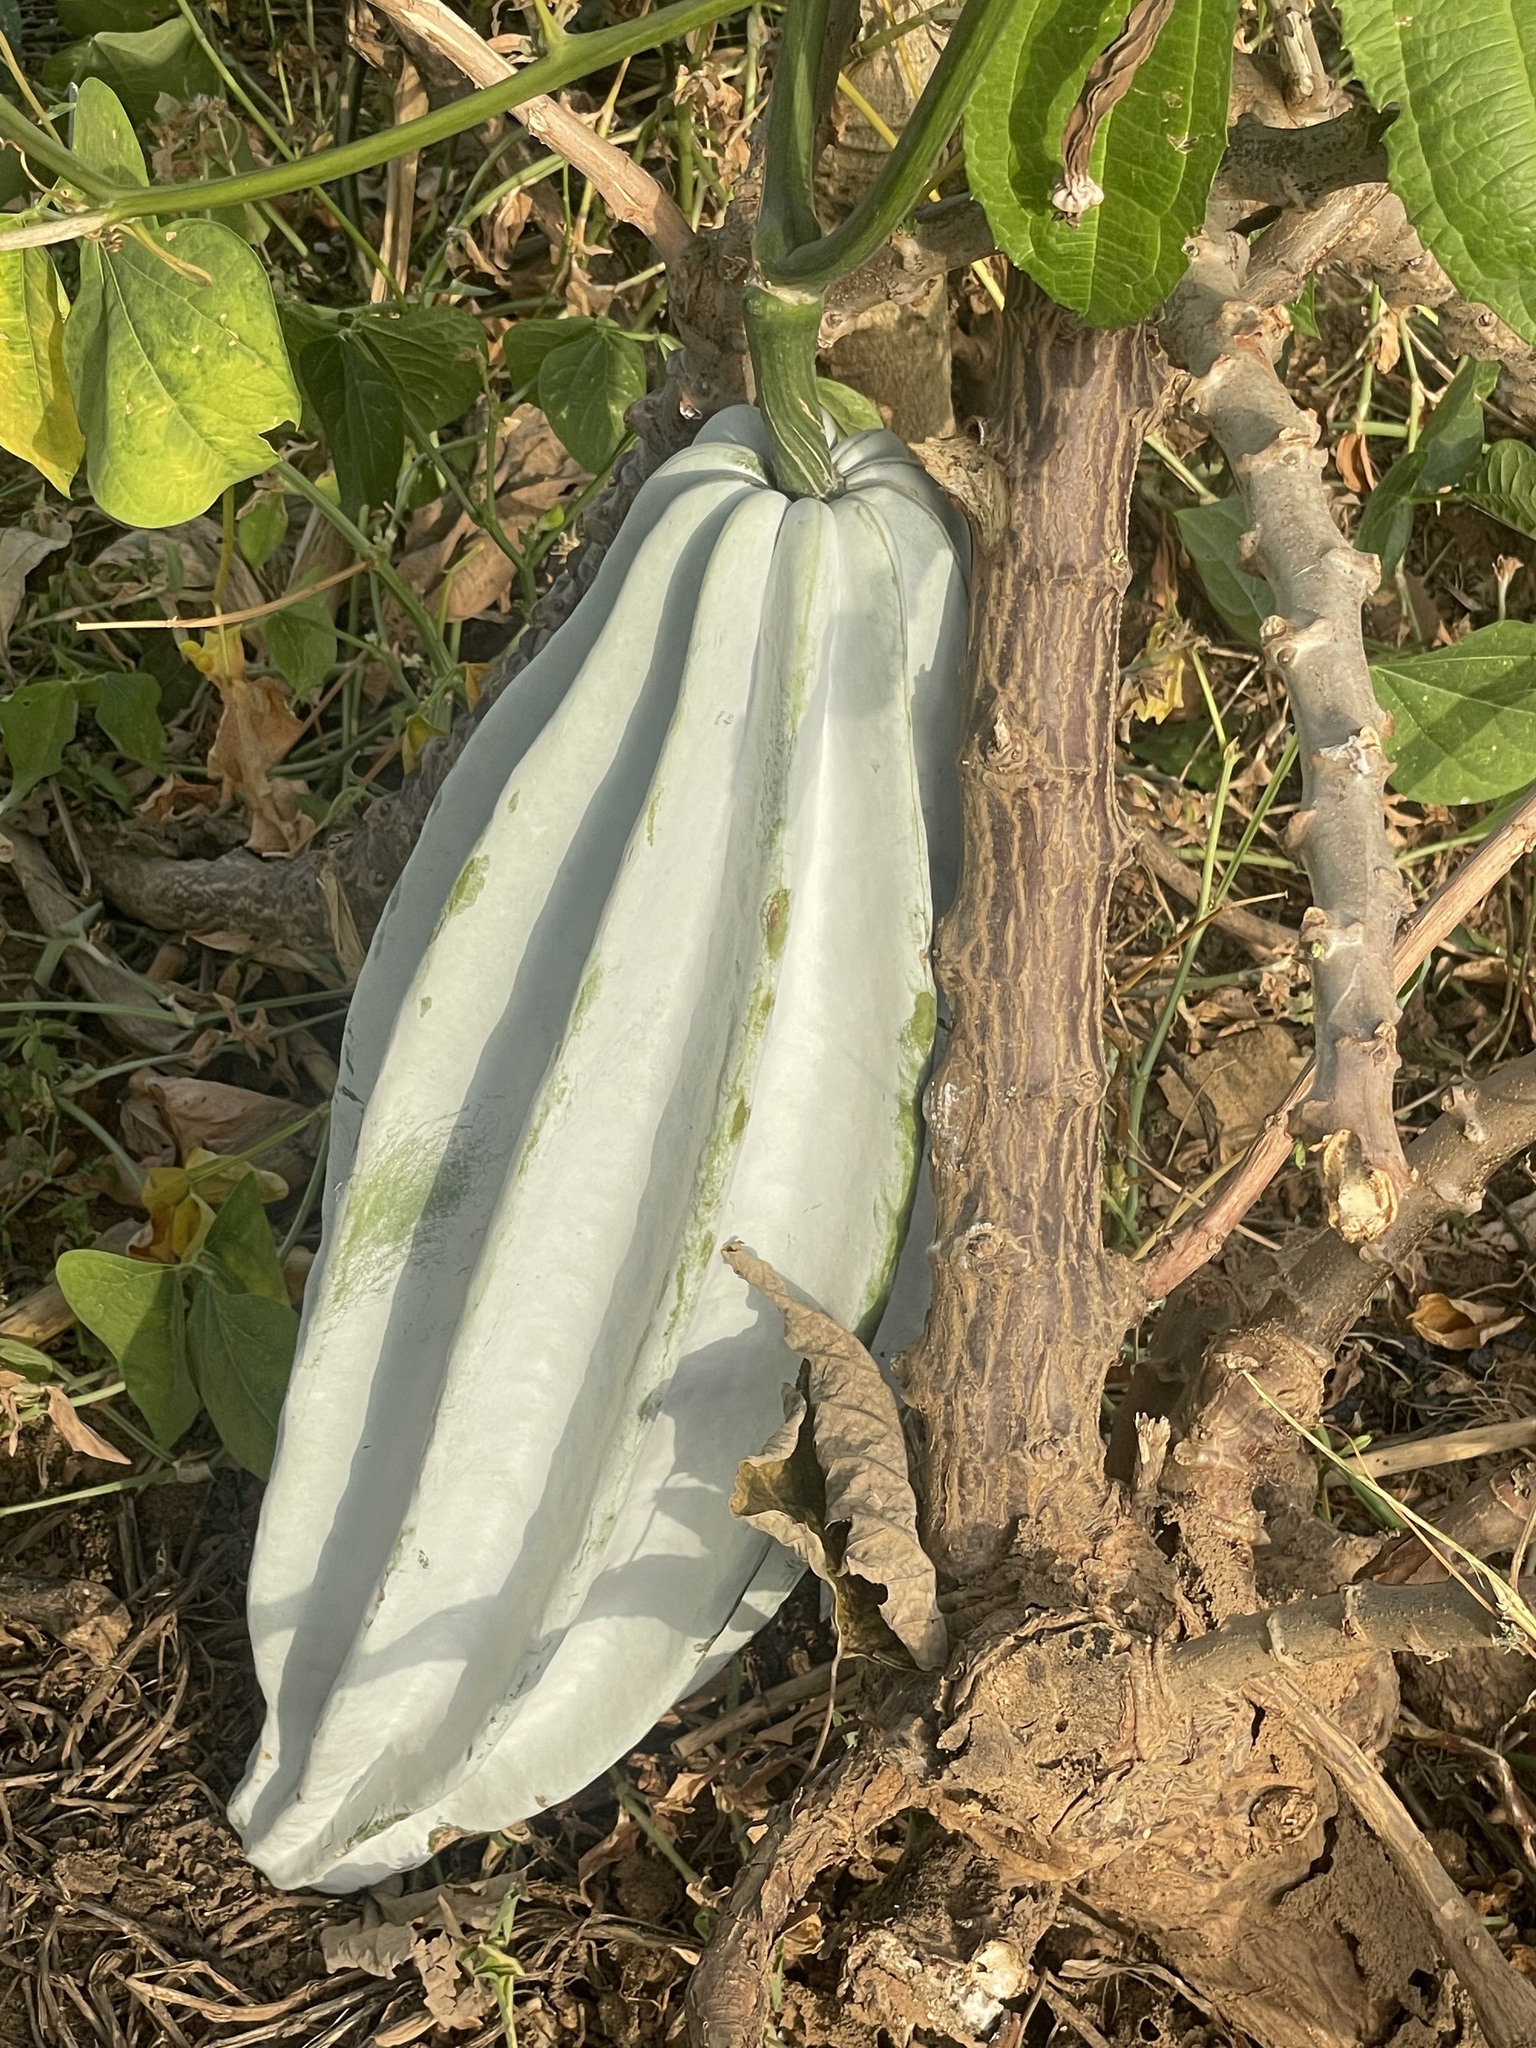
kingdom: Plantae
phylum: Tracheophyta
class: Magnoliopsida
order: Cucurbitales
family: Cucurbitaceae
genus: Telfairia
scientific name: Telfairia occidentalis
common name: Oysternut
